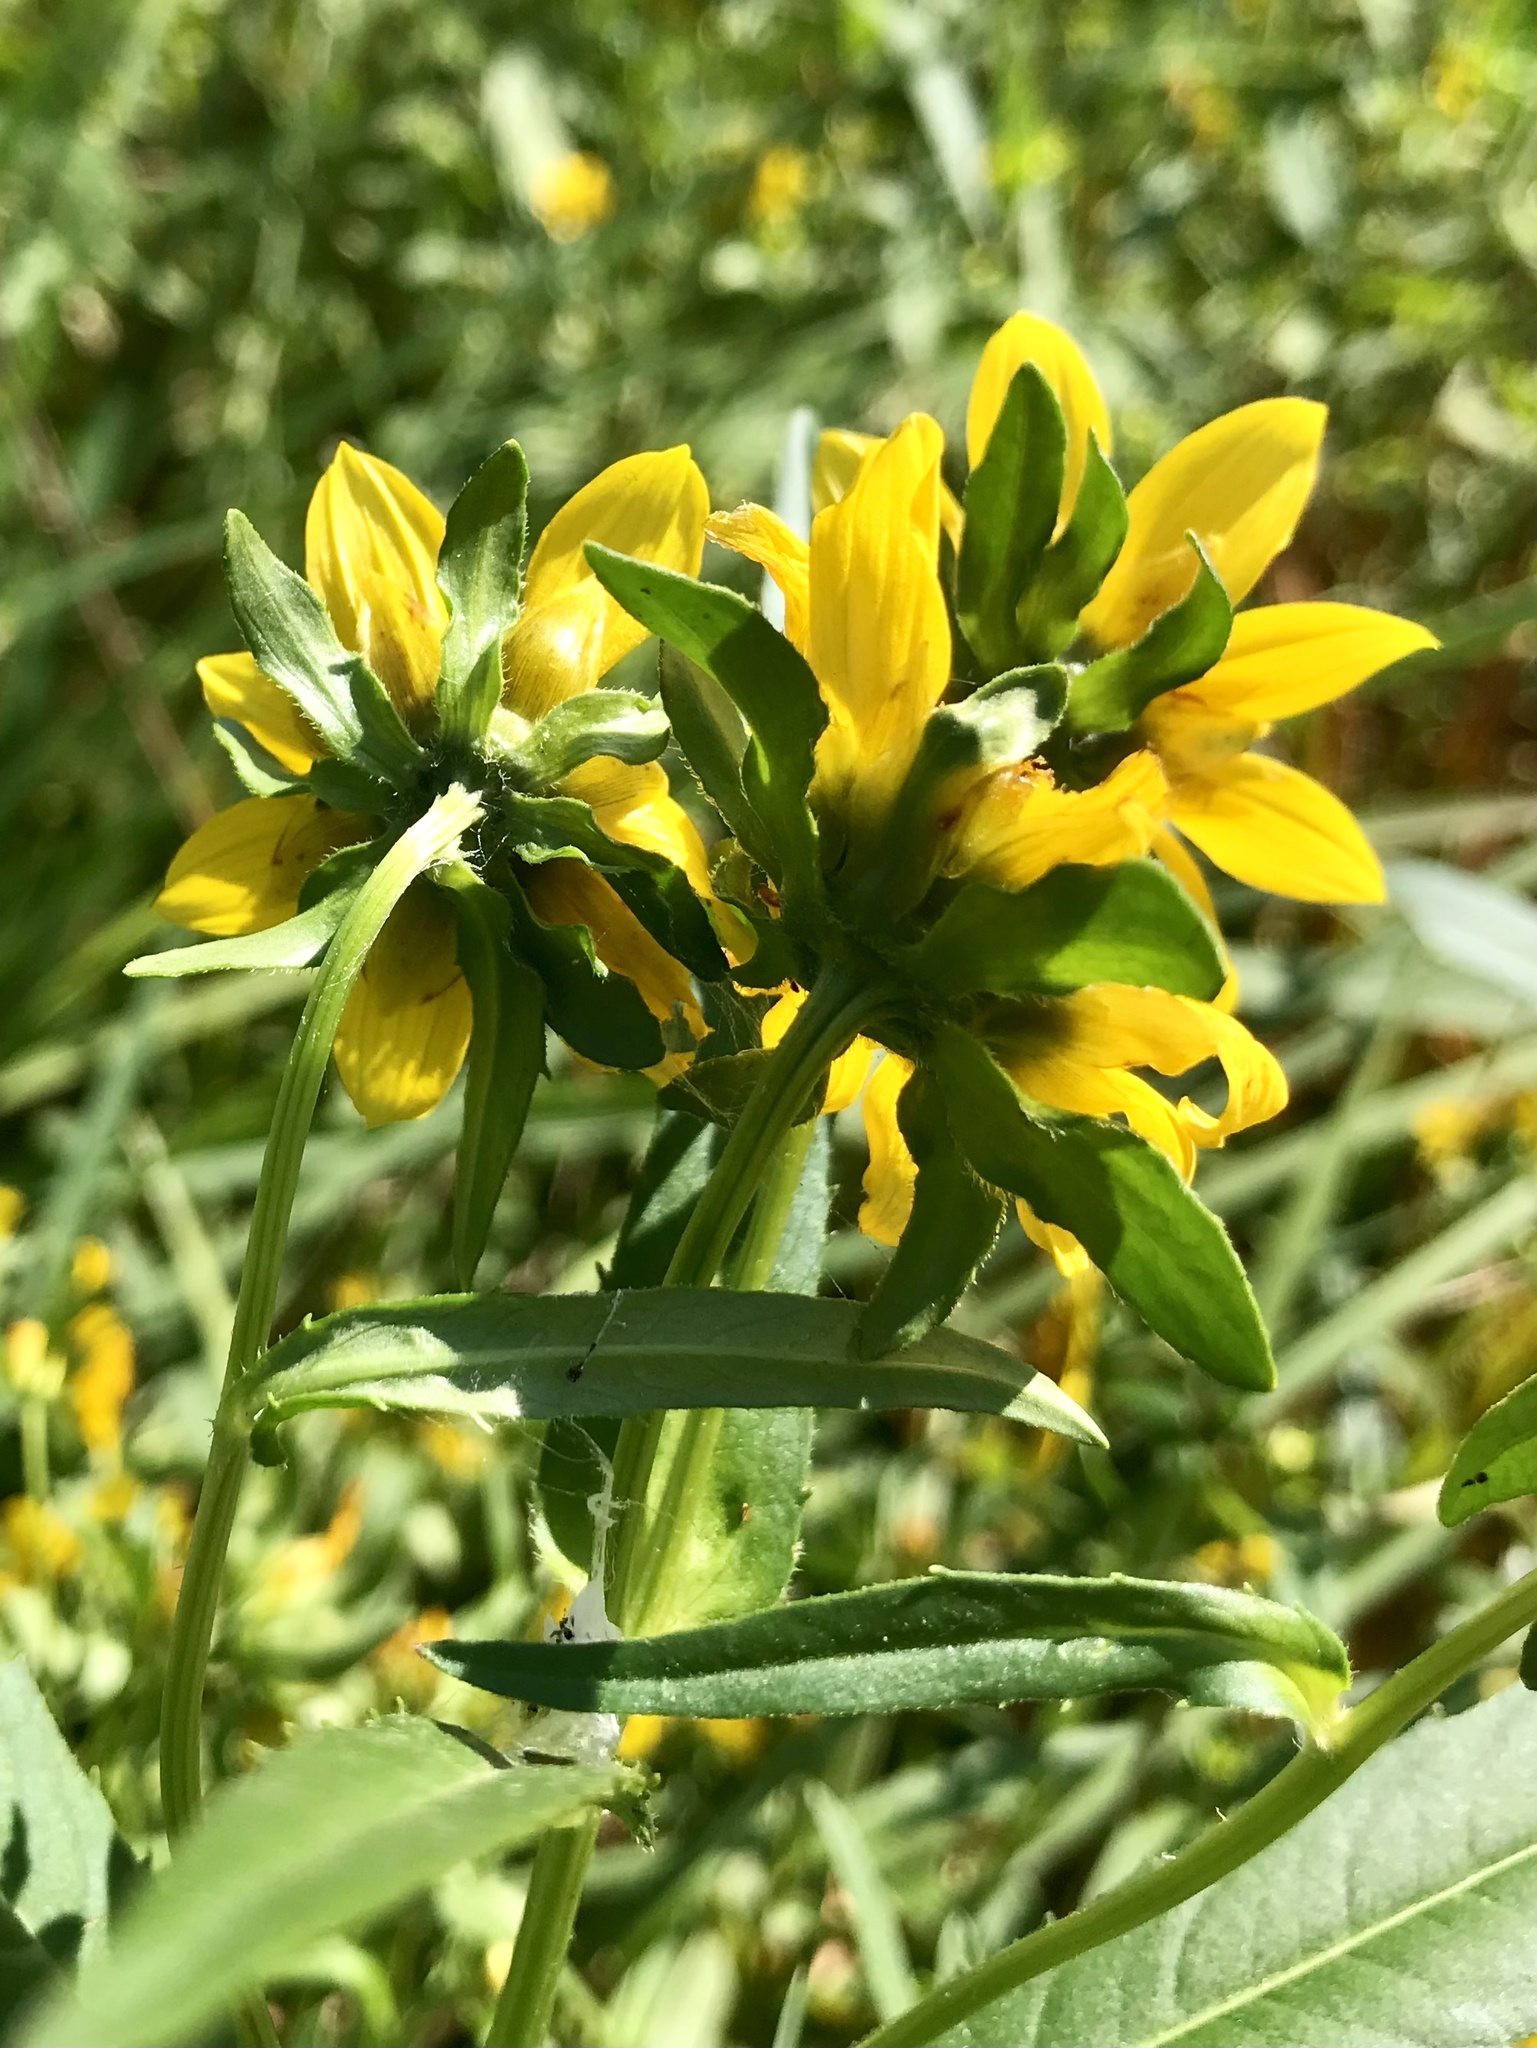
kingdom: Plantae
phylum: Tracheophyta
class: Magnoliopsida
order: Asterales
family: Asteraceae
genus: Bidens
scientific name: Bidens cernua
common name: Nodding bur-marigold
